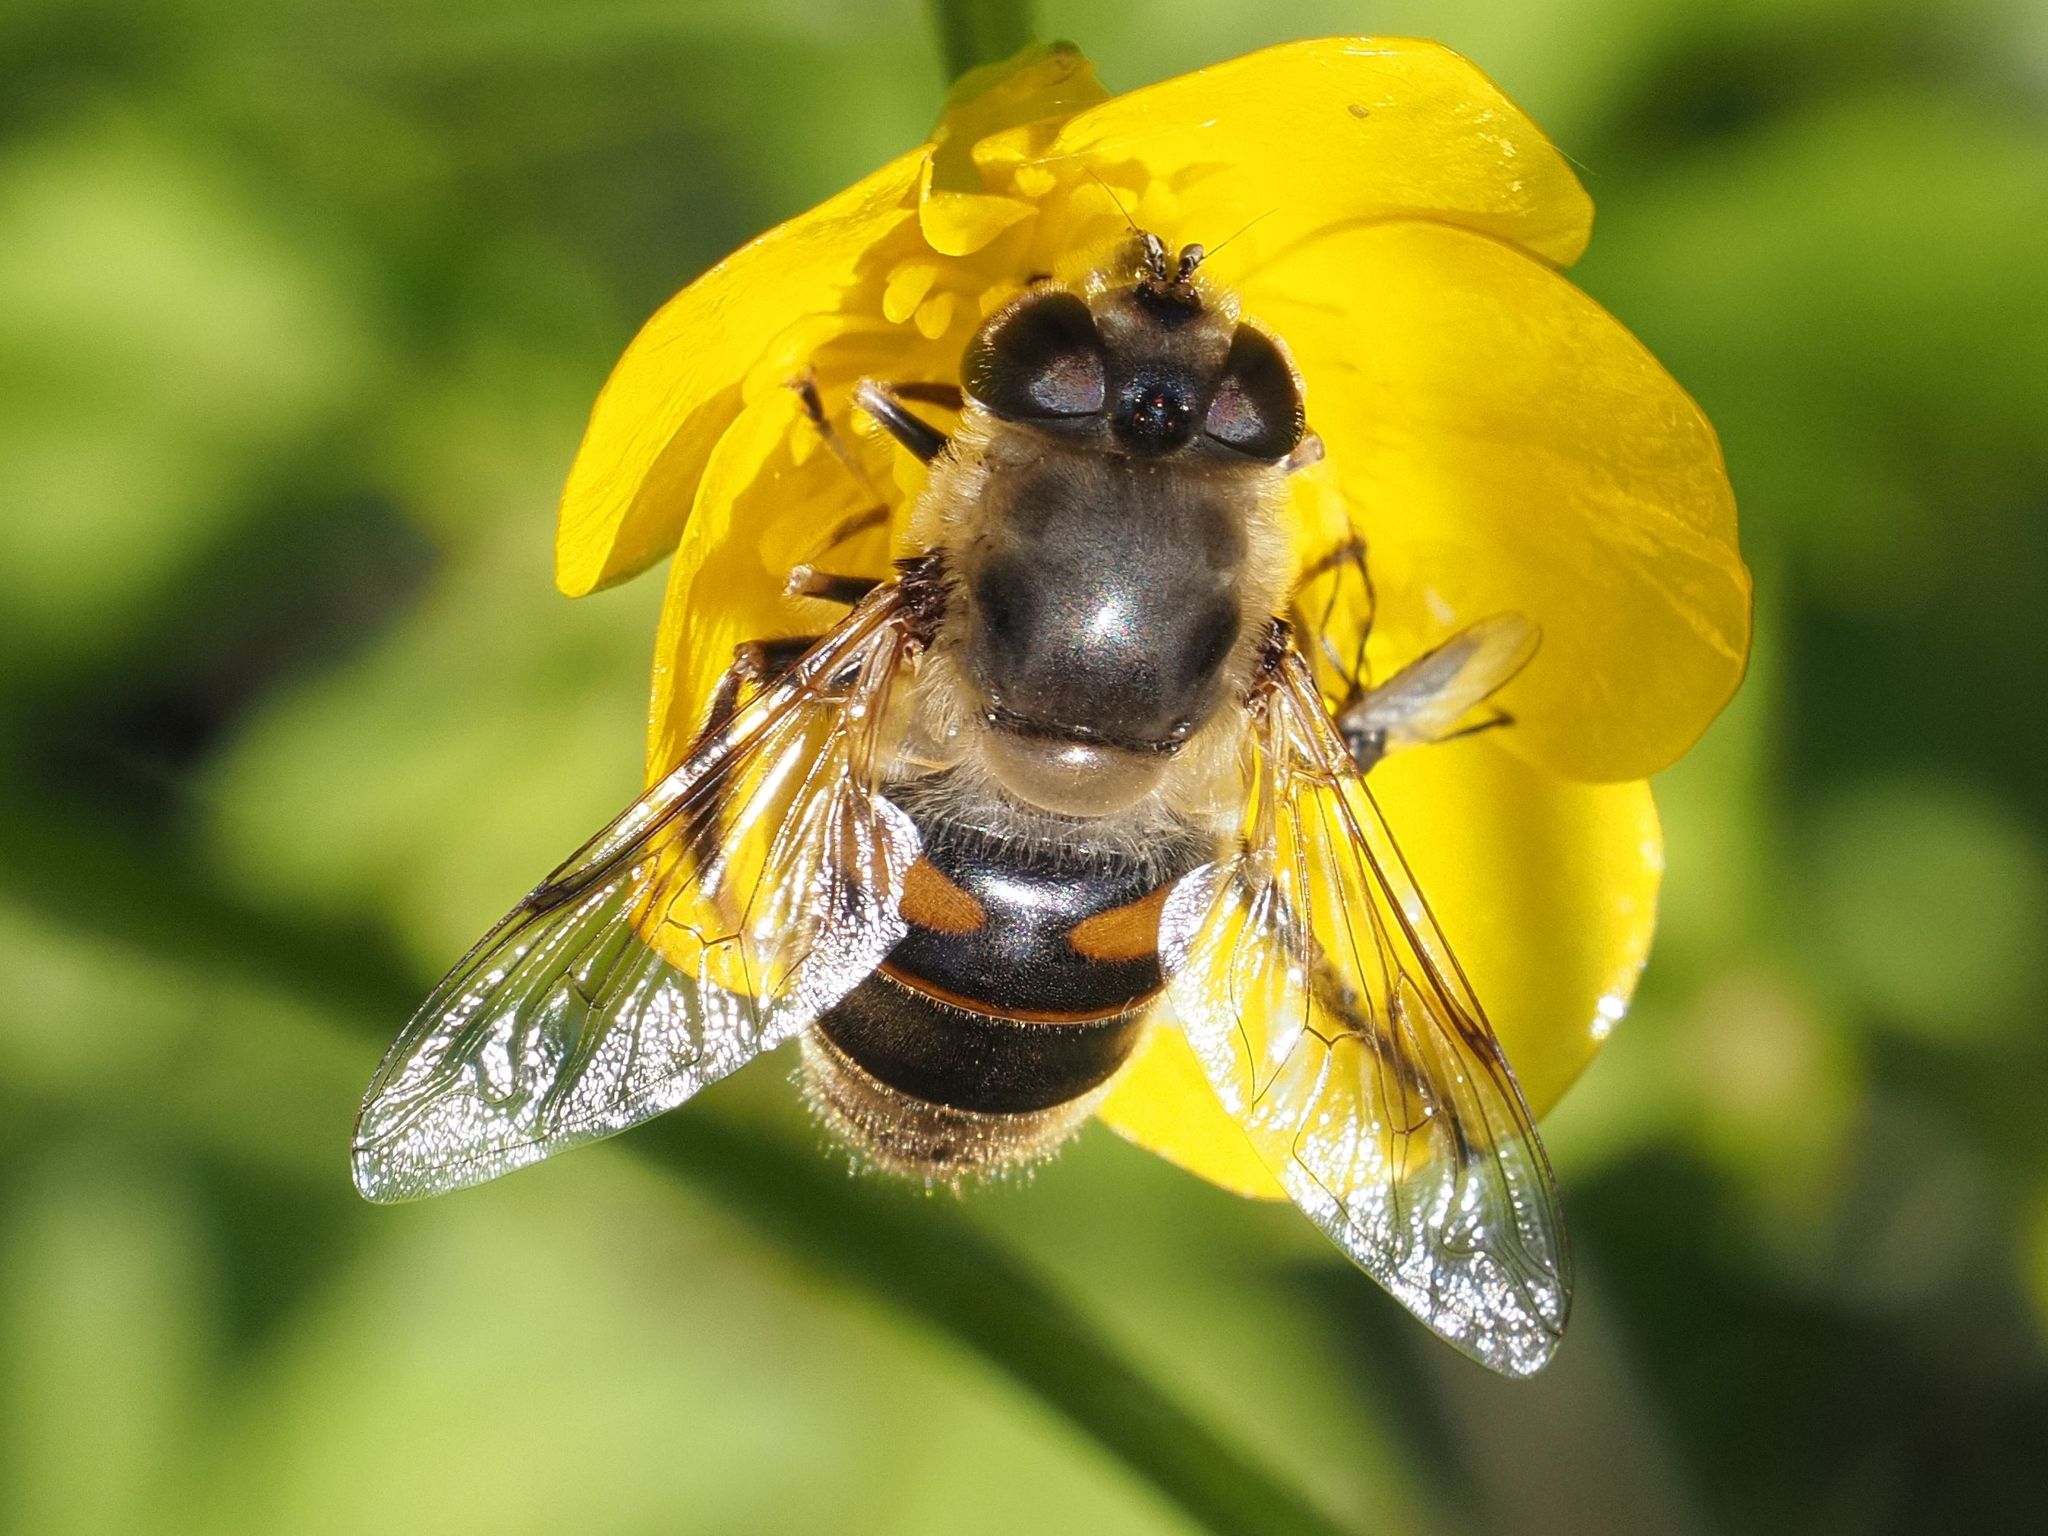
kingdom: Animalia
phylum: Arthropoda
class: Insecta
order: Diptera
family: Syrphidae
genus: Eristalis
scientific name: Eristalis tenax
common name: Drone fly
